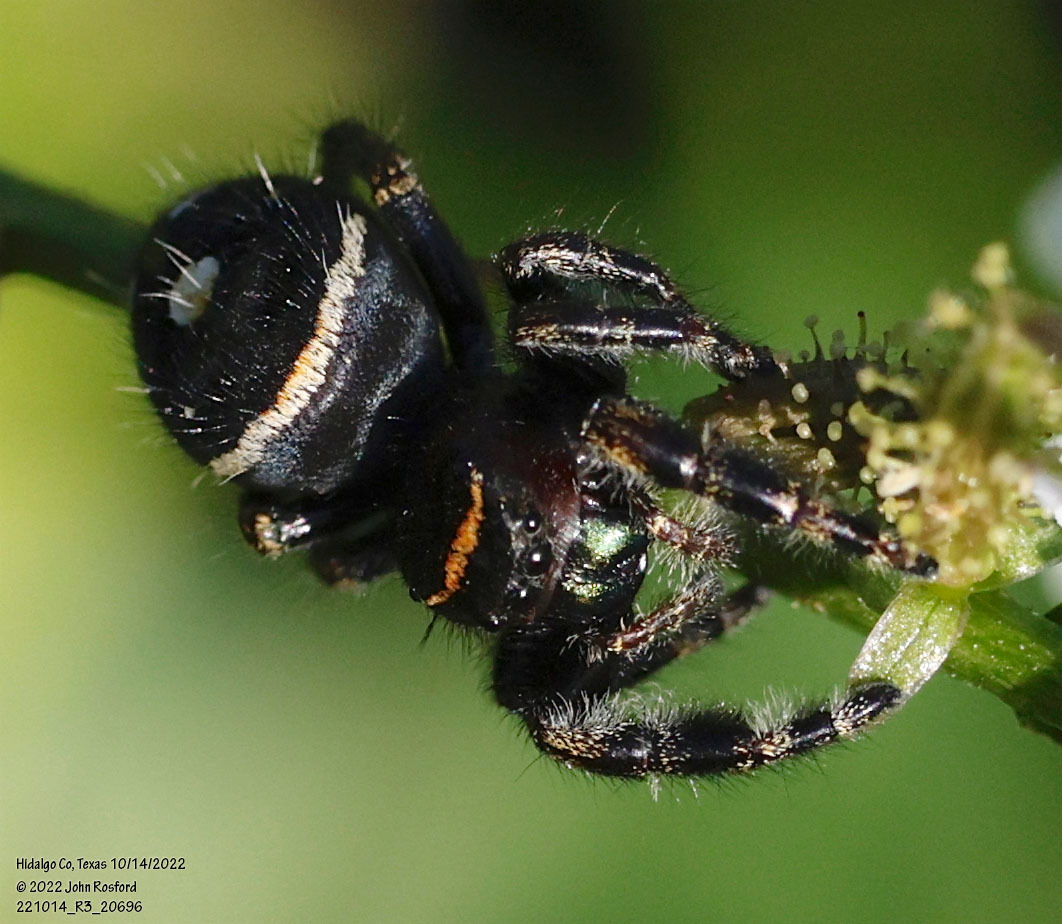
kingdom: Animalia
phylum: Arthropoda
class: Arachnida
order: Araneae
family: Salticidae
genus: Phidippus
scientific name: Phidippus audax
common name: Bold jumper
